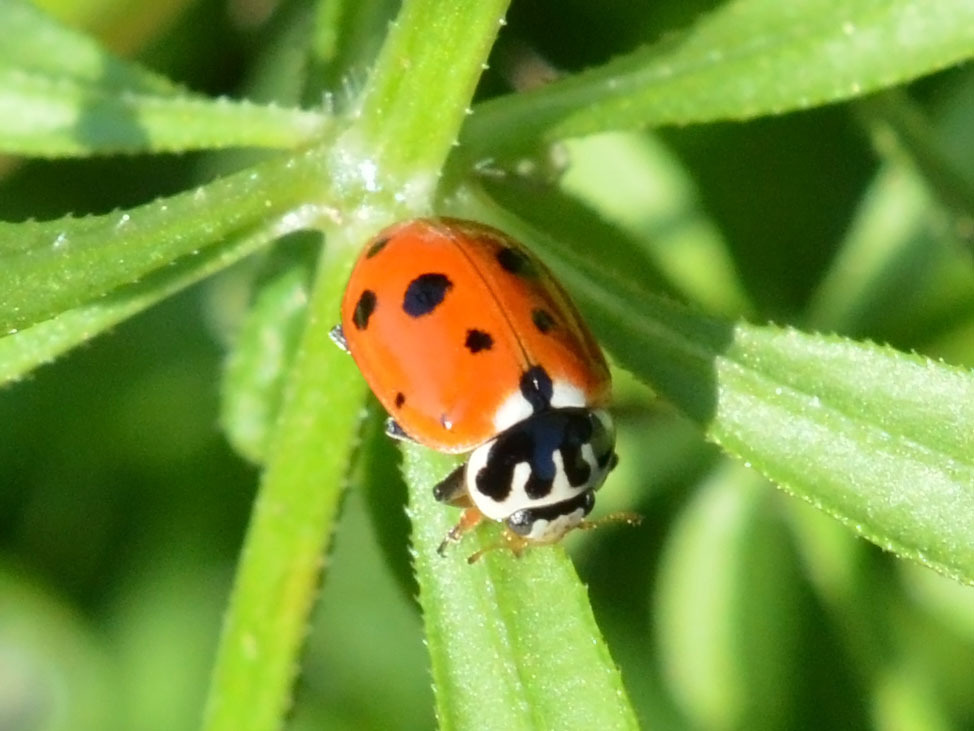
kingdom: Animalia
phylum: Arthropoda
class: Insecta
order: Coleoptera
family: Coccinellidae
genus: Hippodamia
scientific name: Hippodamia variegata
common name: Ladybird beetle
